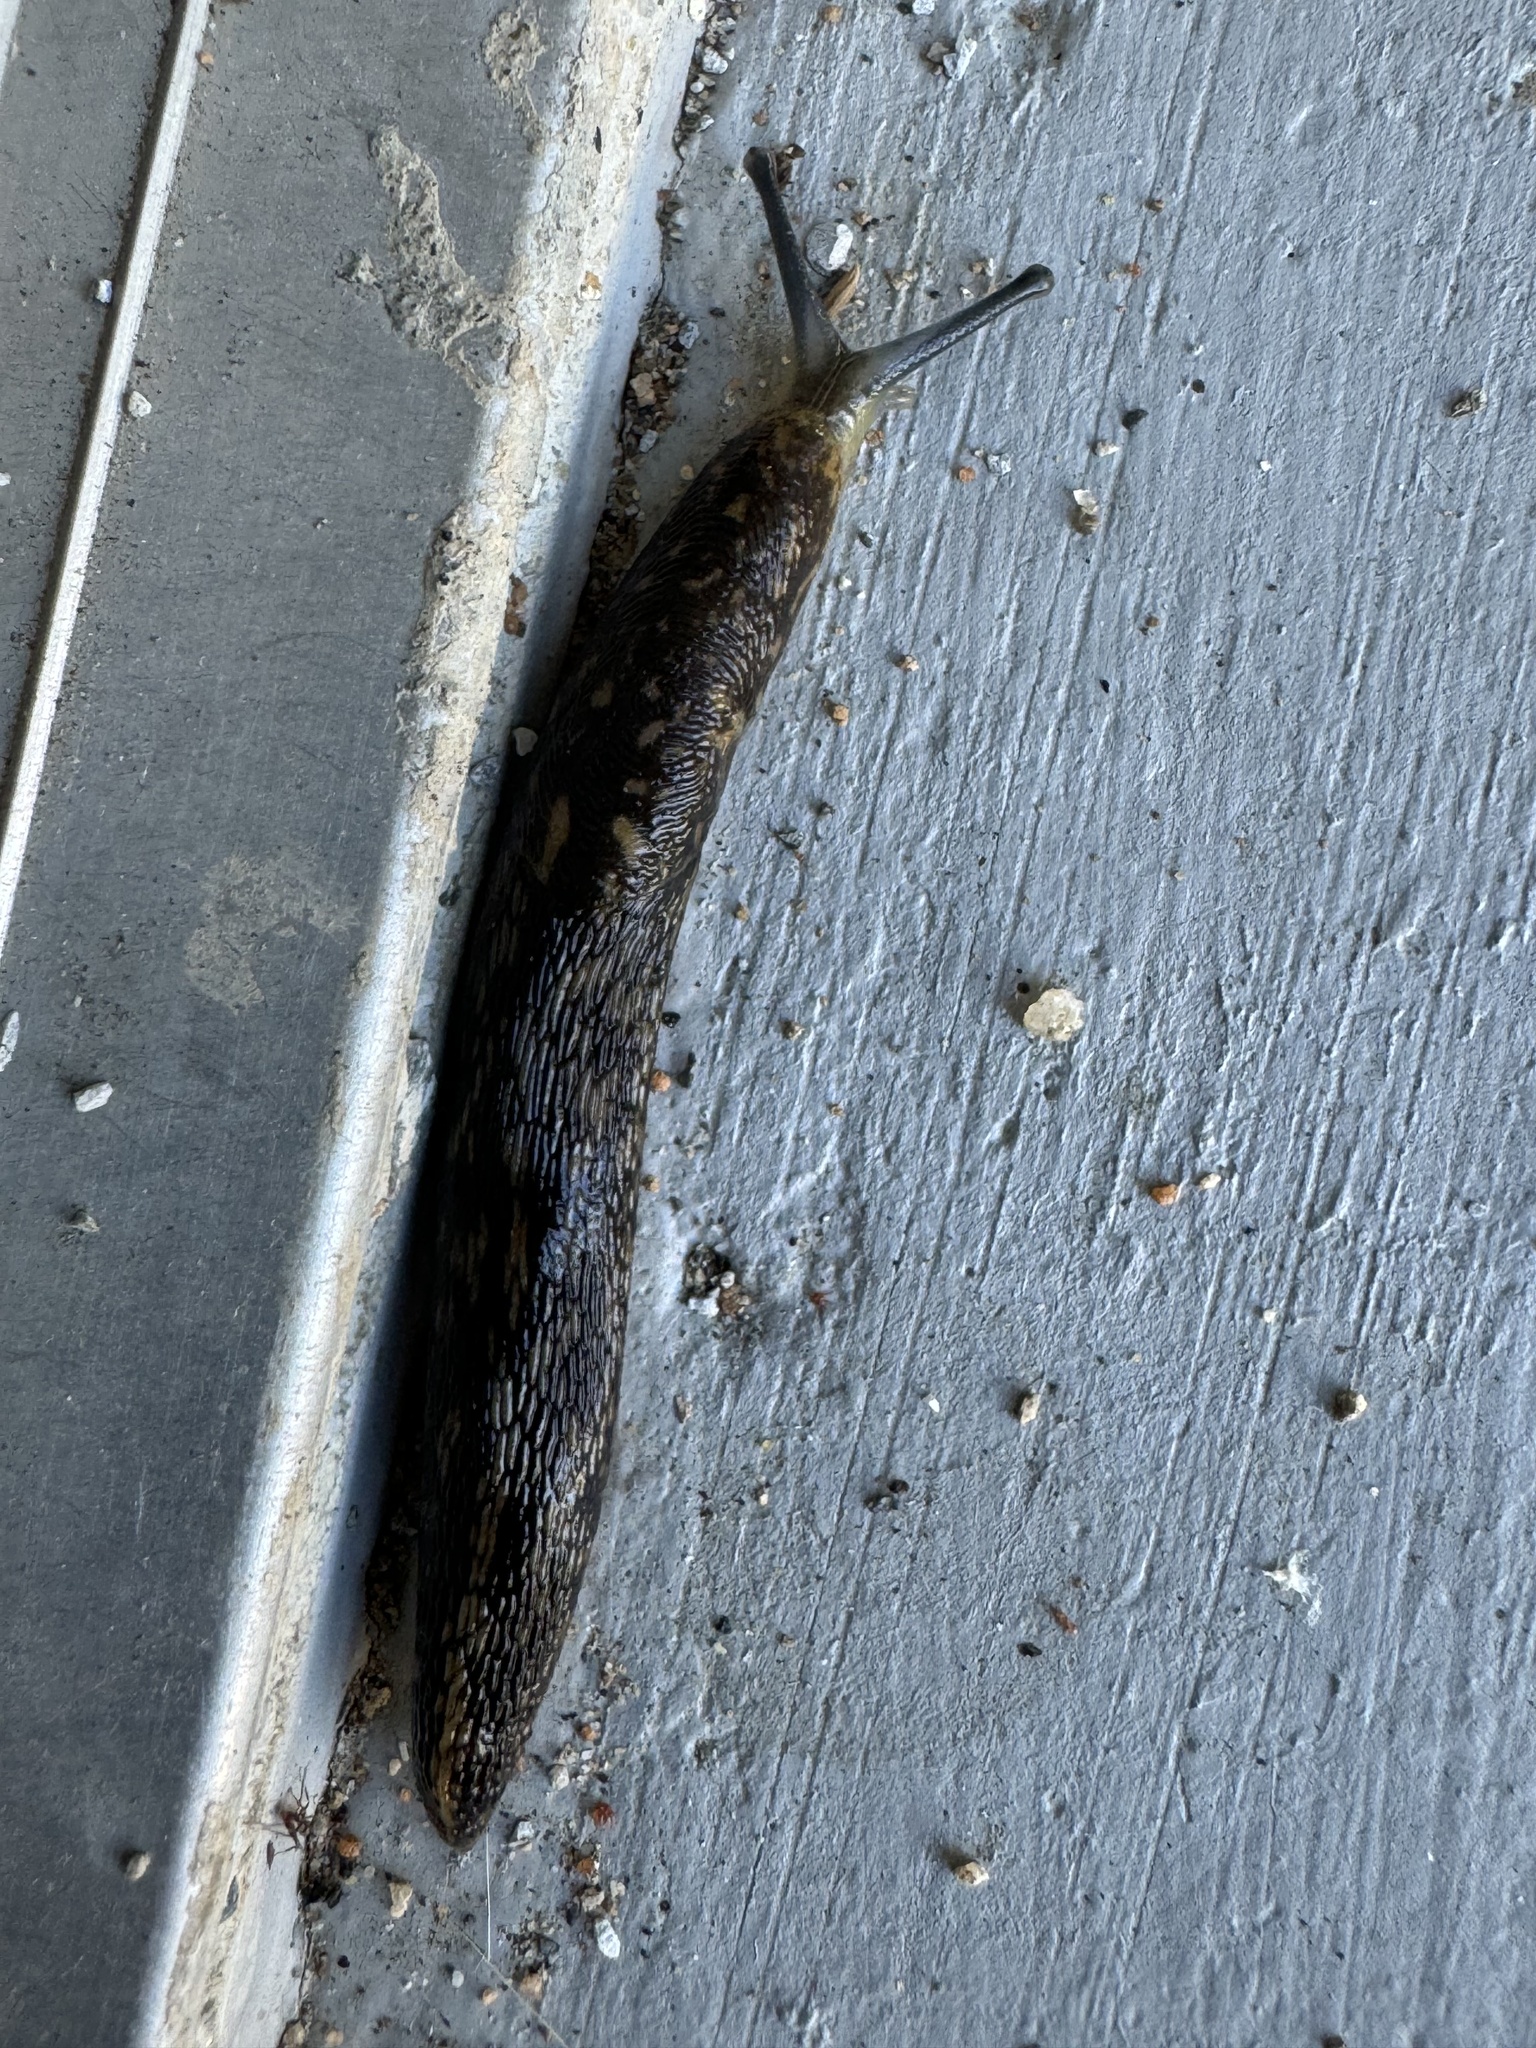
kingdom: Animalia
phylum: Mollusca
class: Gastropoda
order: Stylommatophora
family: Limacidae
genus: Limacus
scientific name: Limacus flavus
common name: Yellow gardenslug
